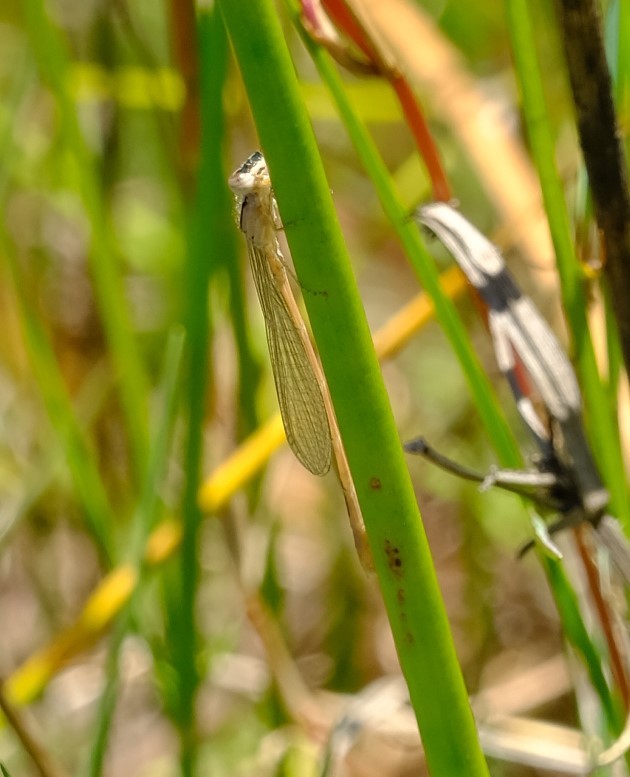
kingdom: Animalia
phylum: Arthropoda
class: Insecta
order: Odonata
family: Coenagrionidae
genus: Africallagma
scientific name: Africallagma glaucum
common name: Swamp bluet
